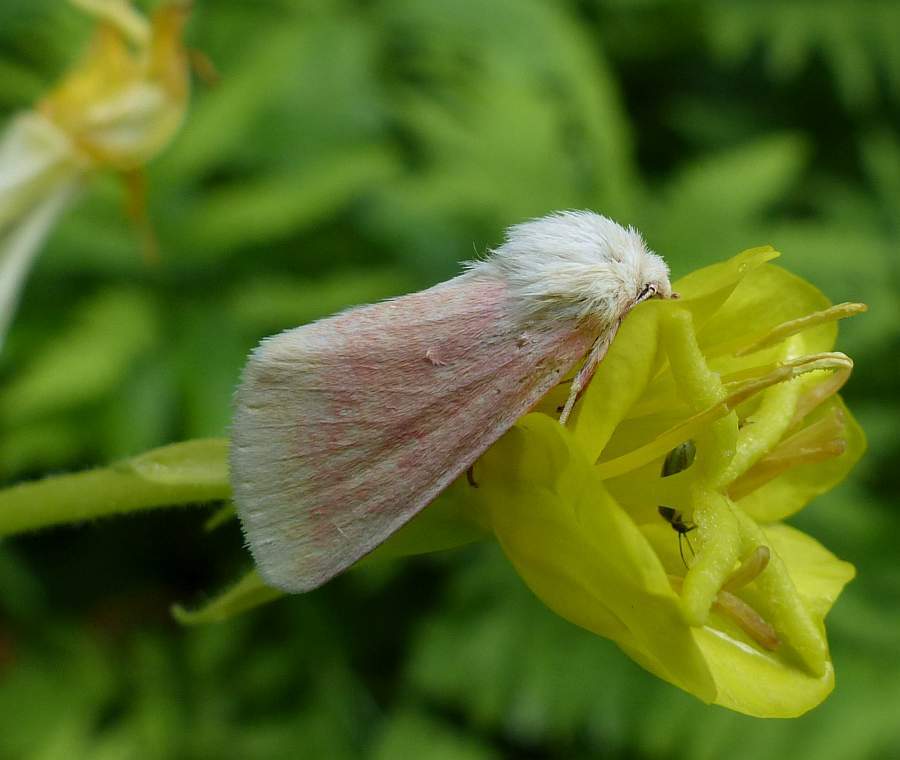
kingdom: Animalia
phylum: Arthropoda
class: Insecta
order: Lepidoptera
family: Noctuidae
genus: Schinia
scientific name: Schinia florida
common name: Primrose moth
